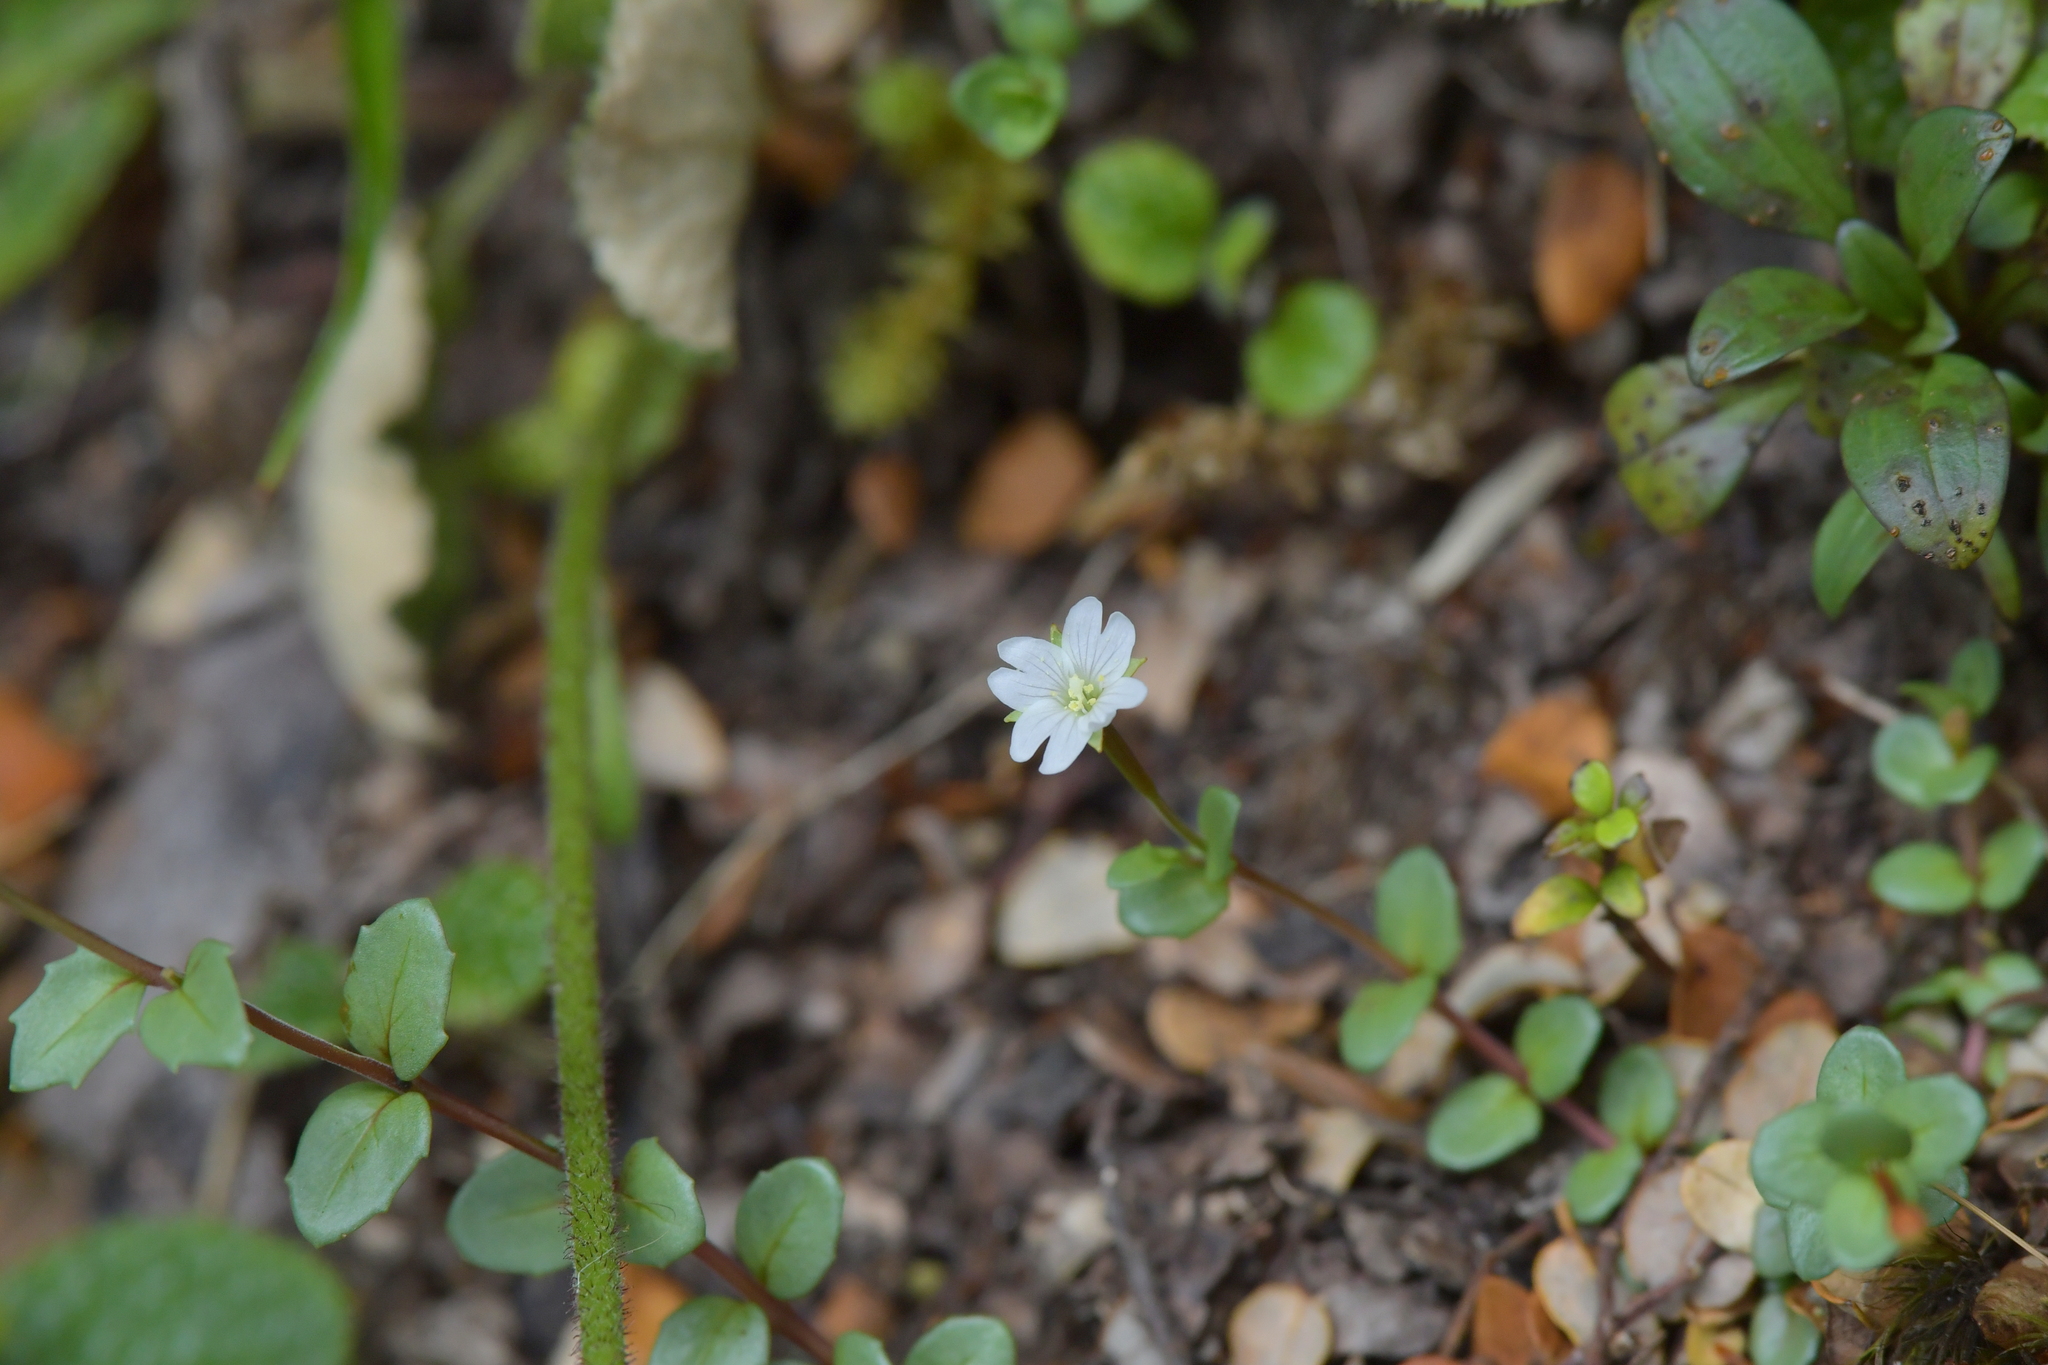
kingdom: Plantae
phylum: Tracheophyta
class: Magnoliopsida
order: Myrtales
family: Onagraceae
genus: Epilobium
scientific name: Epilobium alsinoides
